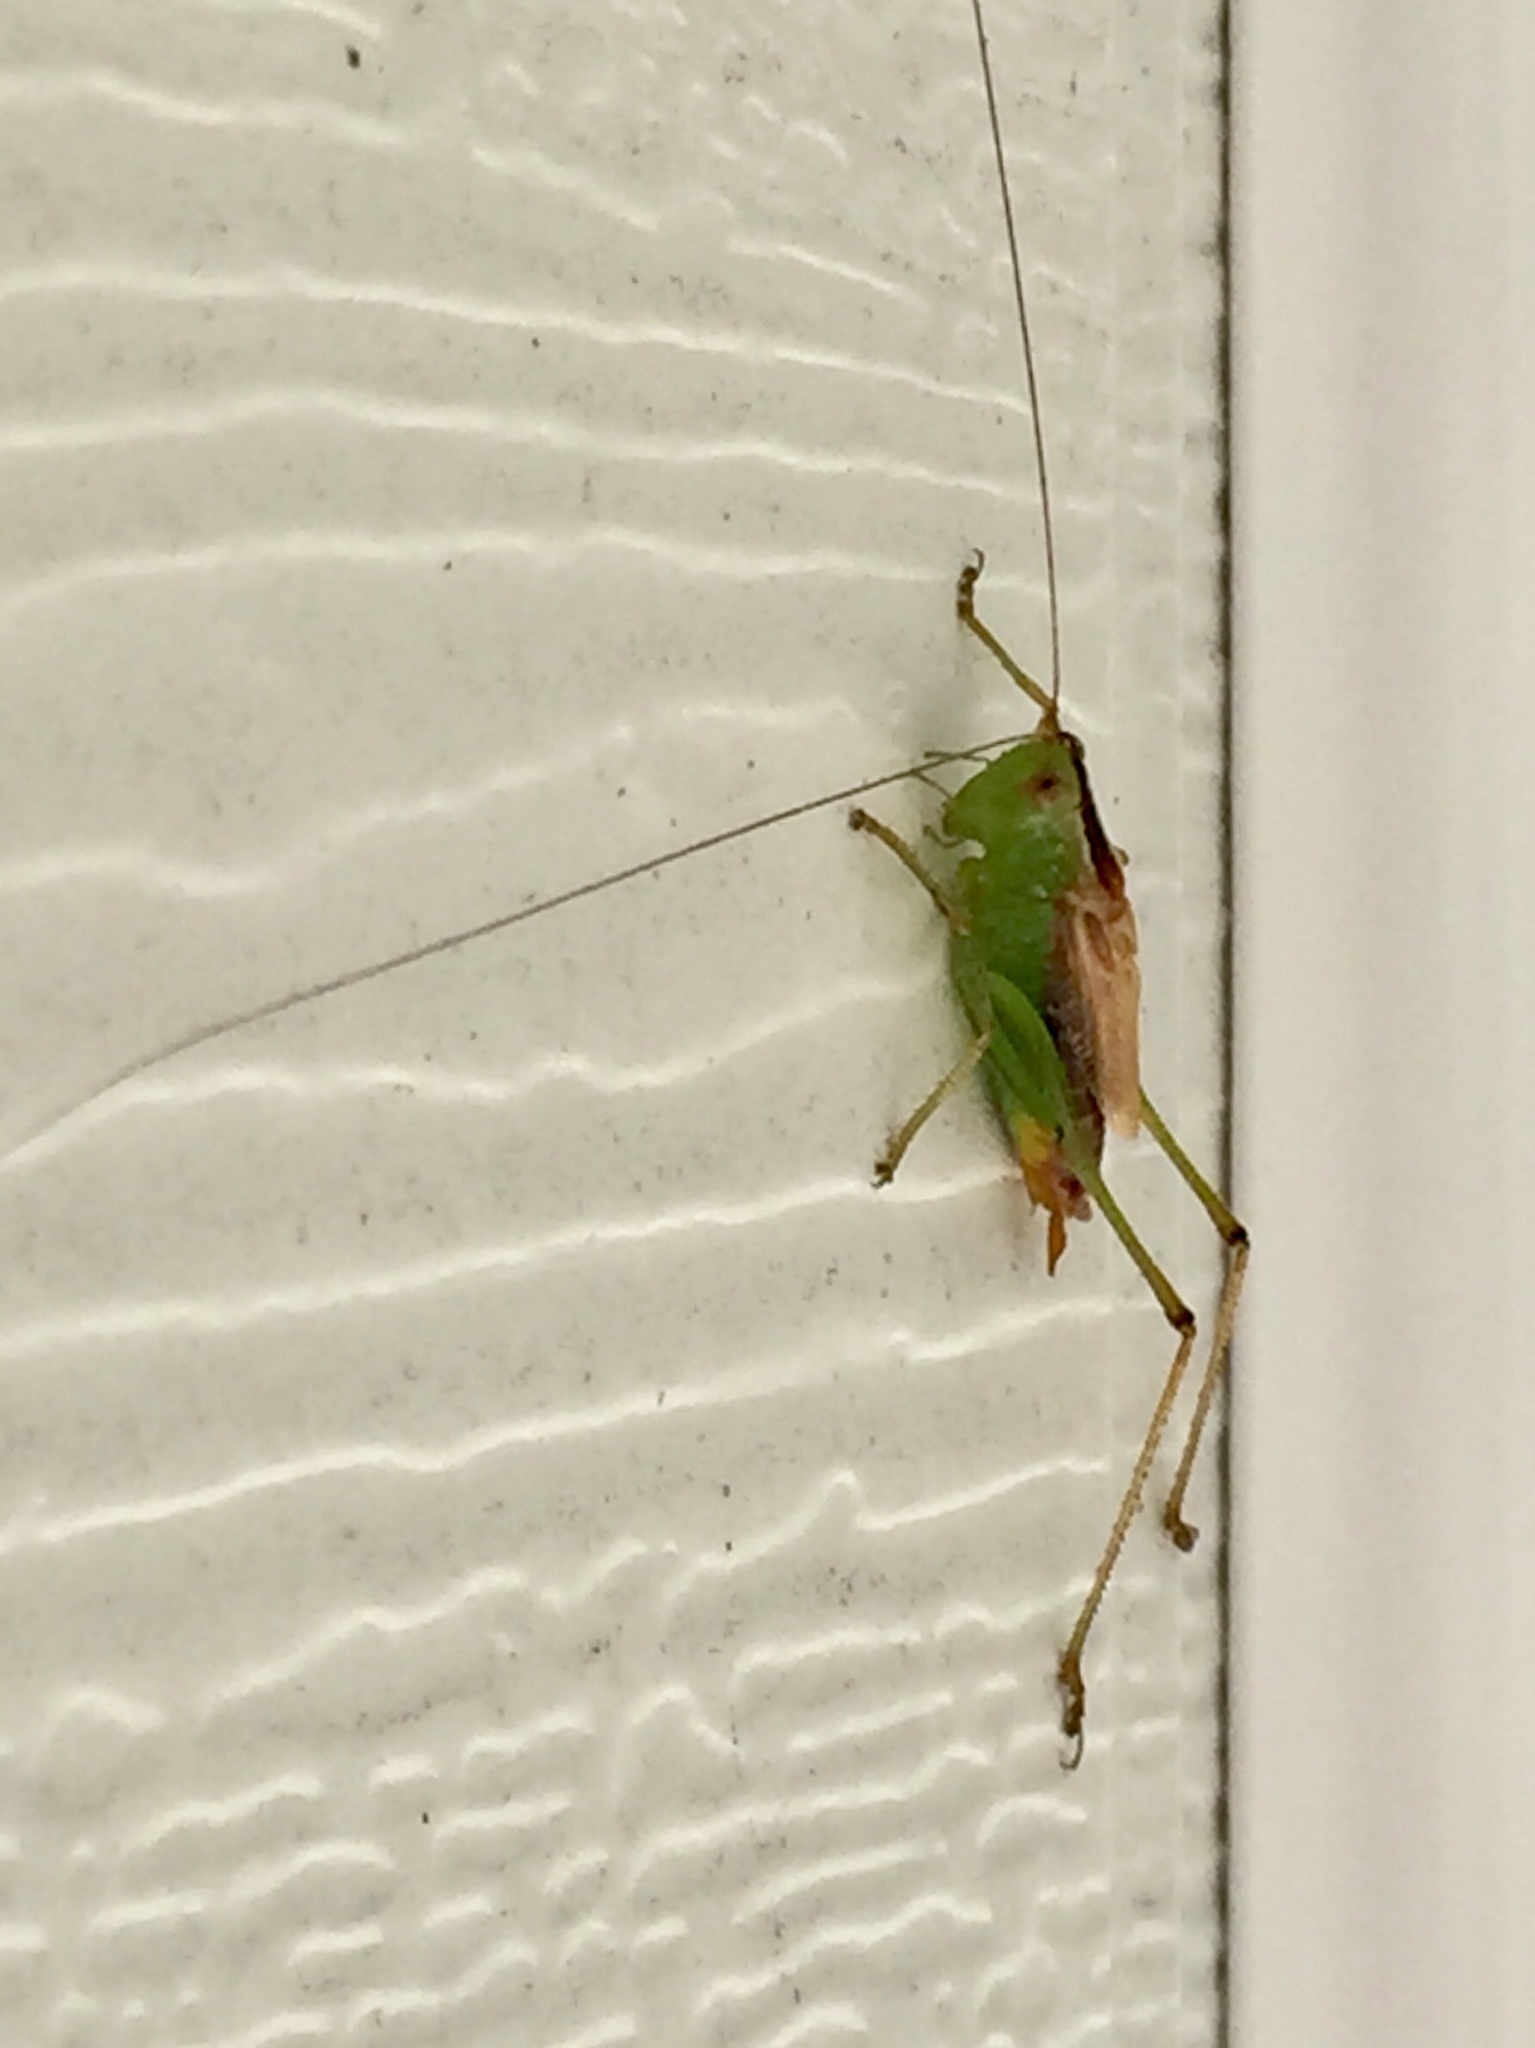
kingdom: Animalia
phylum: Arthropoda
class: Insecta
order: Orthoptera
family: Tettigoniidae
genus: Conocephalus
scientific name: Conocephalus brevipennis
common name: Short-winged meadow katydid
